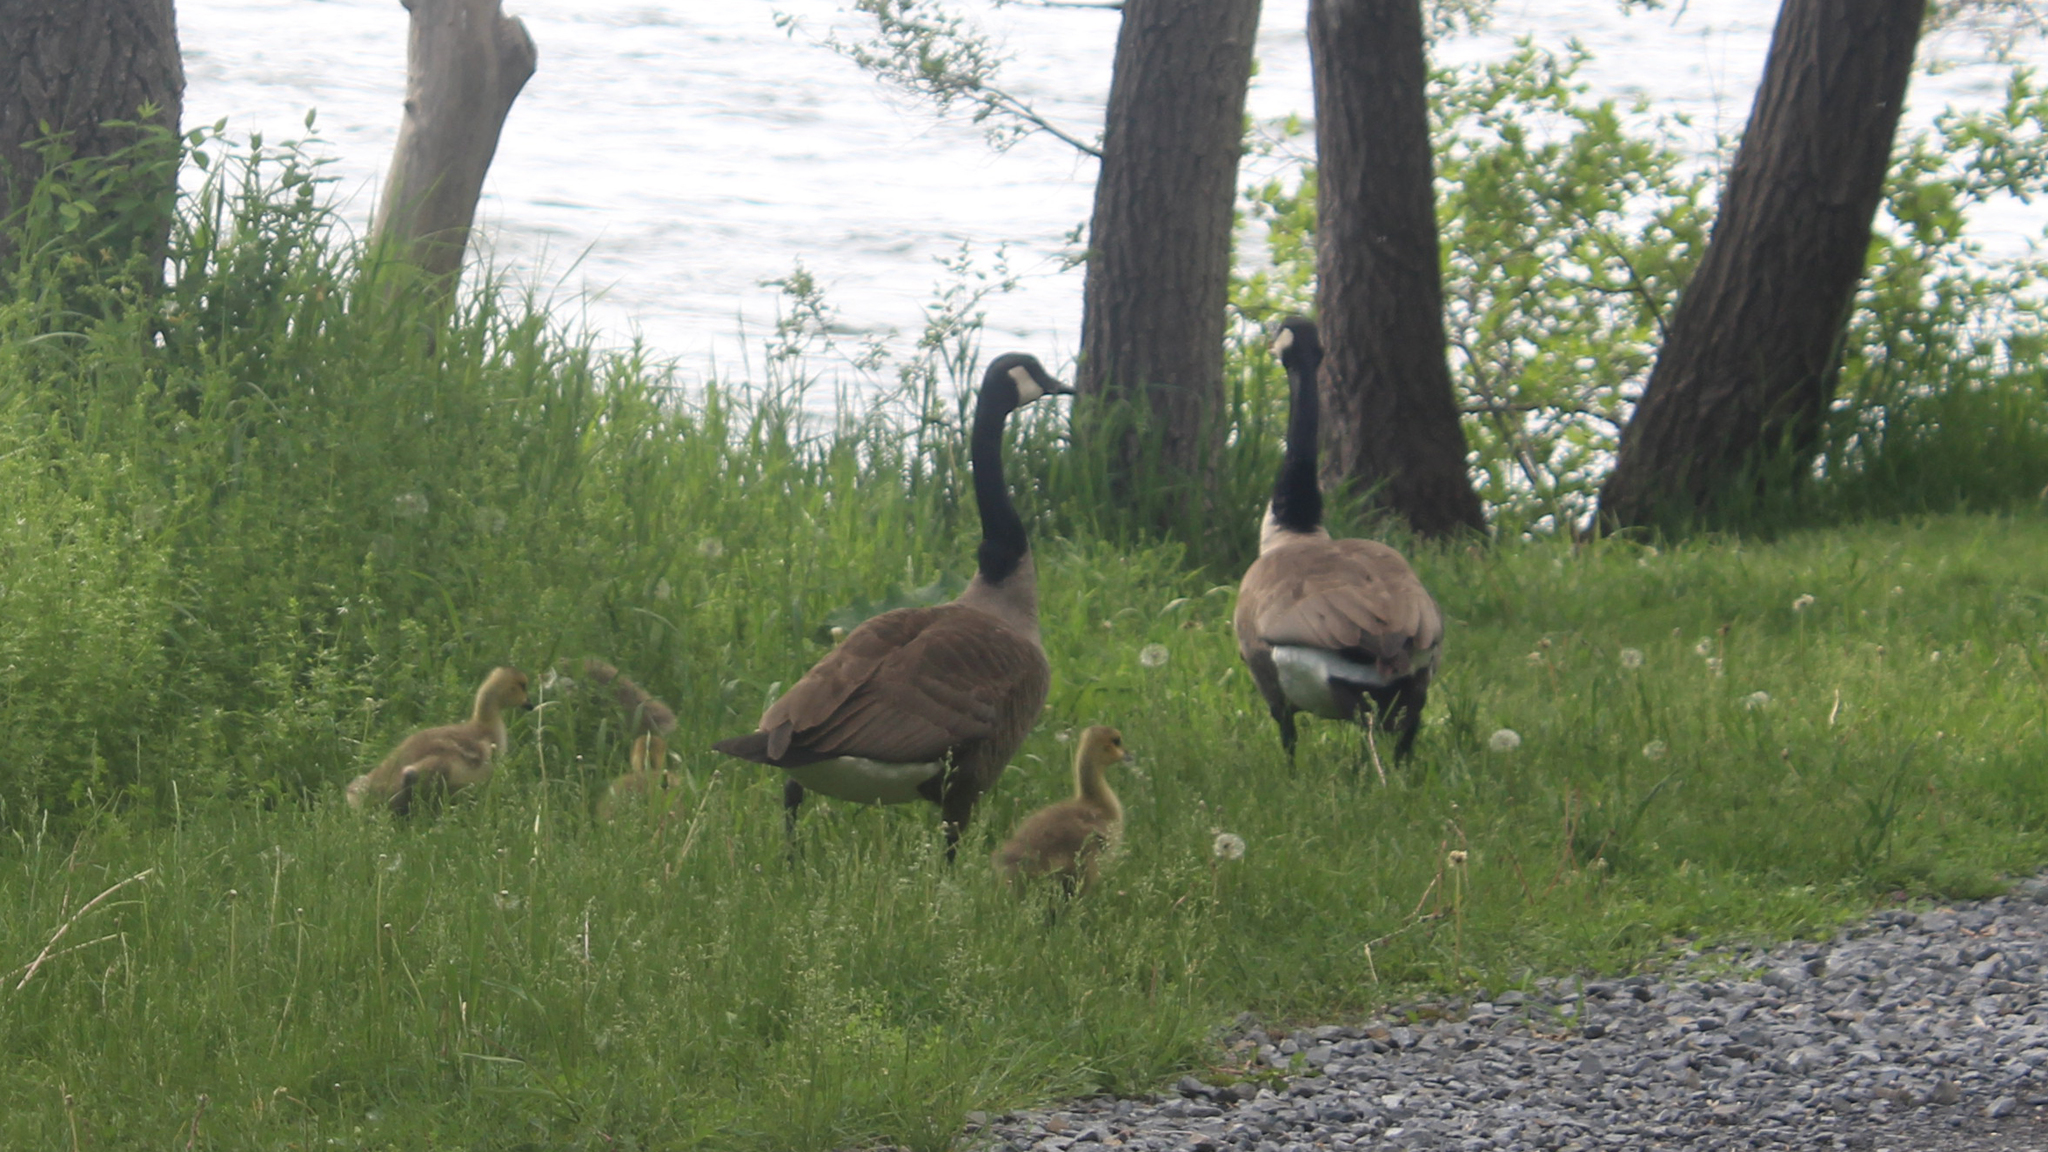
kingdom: Animalia
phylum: Chordata
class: Aves
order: Anseriformes
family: Anatidae
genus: Branta
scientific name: Branta canadensis
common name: Canada goose
